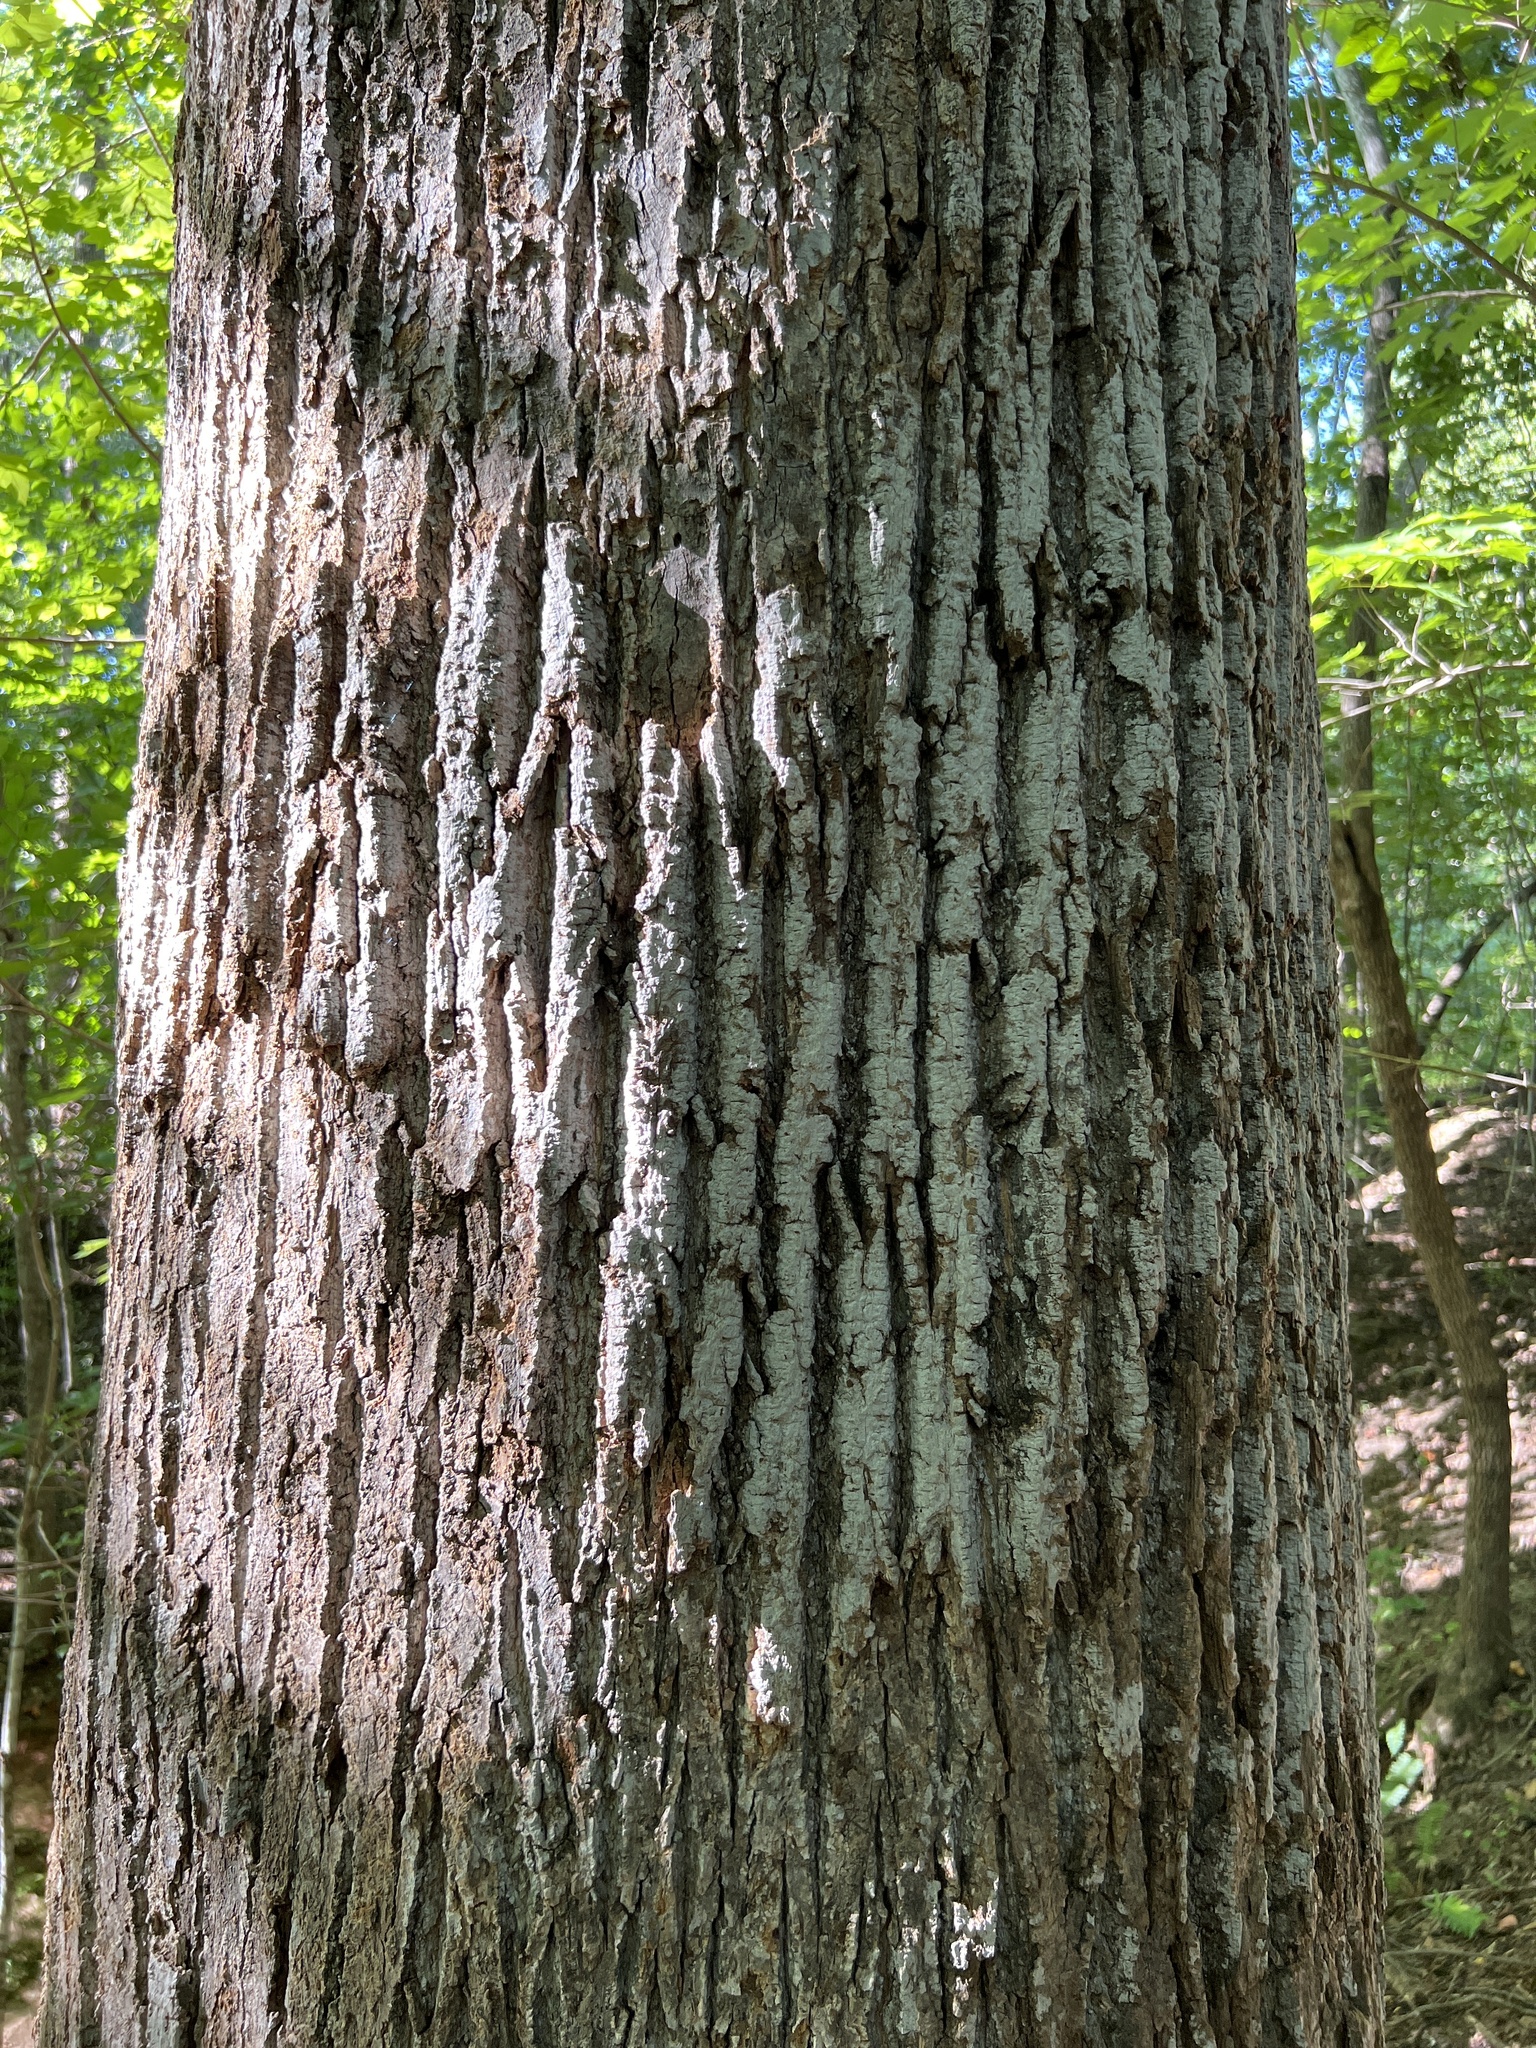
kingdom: Plantae
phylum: Tracheophyta
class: Magnoliopsida
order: Magnoliales
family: Magnoliaceae
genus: Liriodendron
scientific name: Liriodendron tulipifera
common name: Tulip tree
